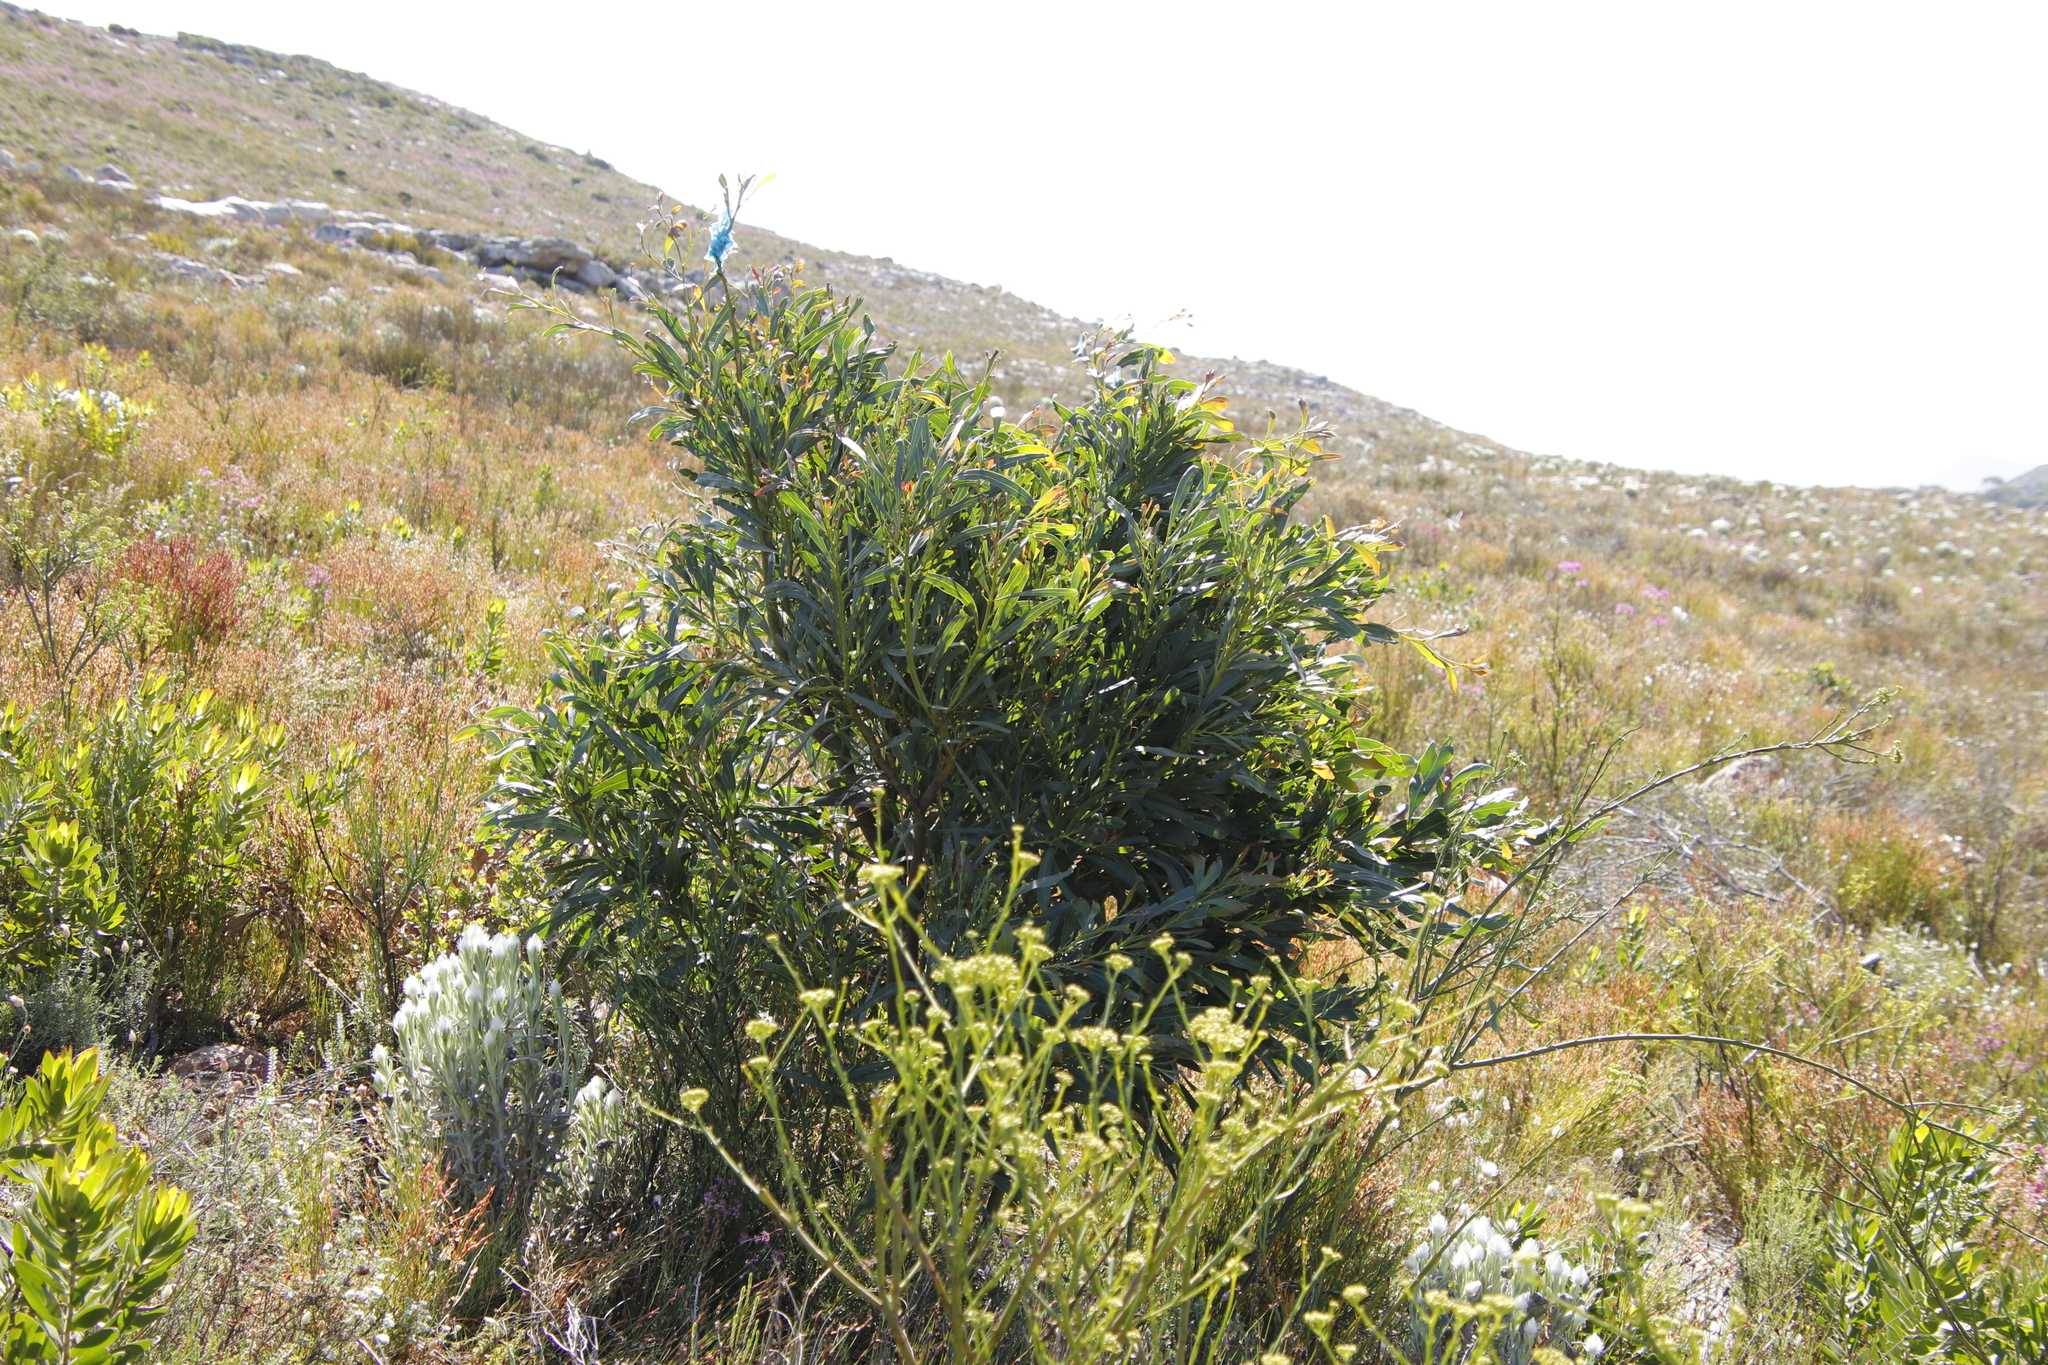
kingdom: Plantae
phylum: Tracheophyta
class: Magnoliopsida
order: Fabales
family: Fabaceae
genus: Acacia
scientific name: Acacia saligna
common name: Orange wattle
